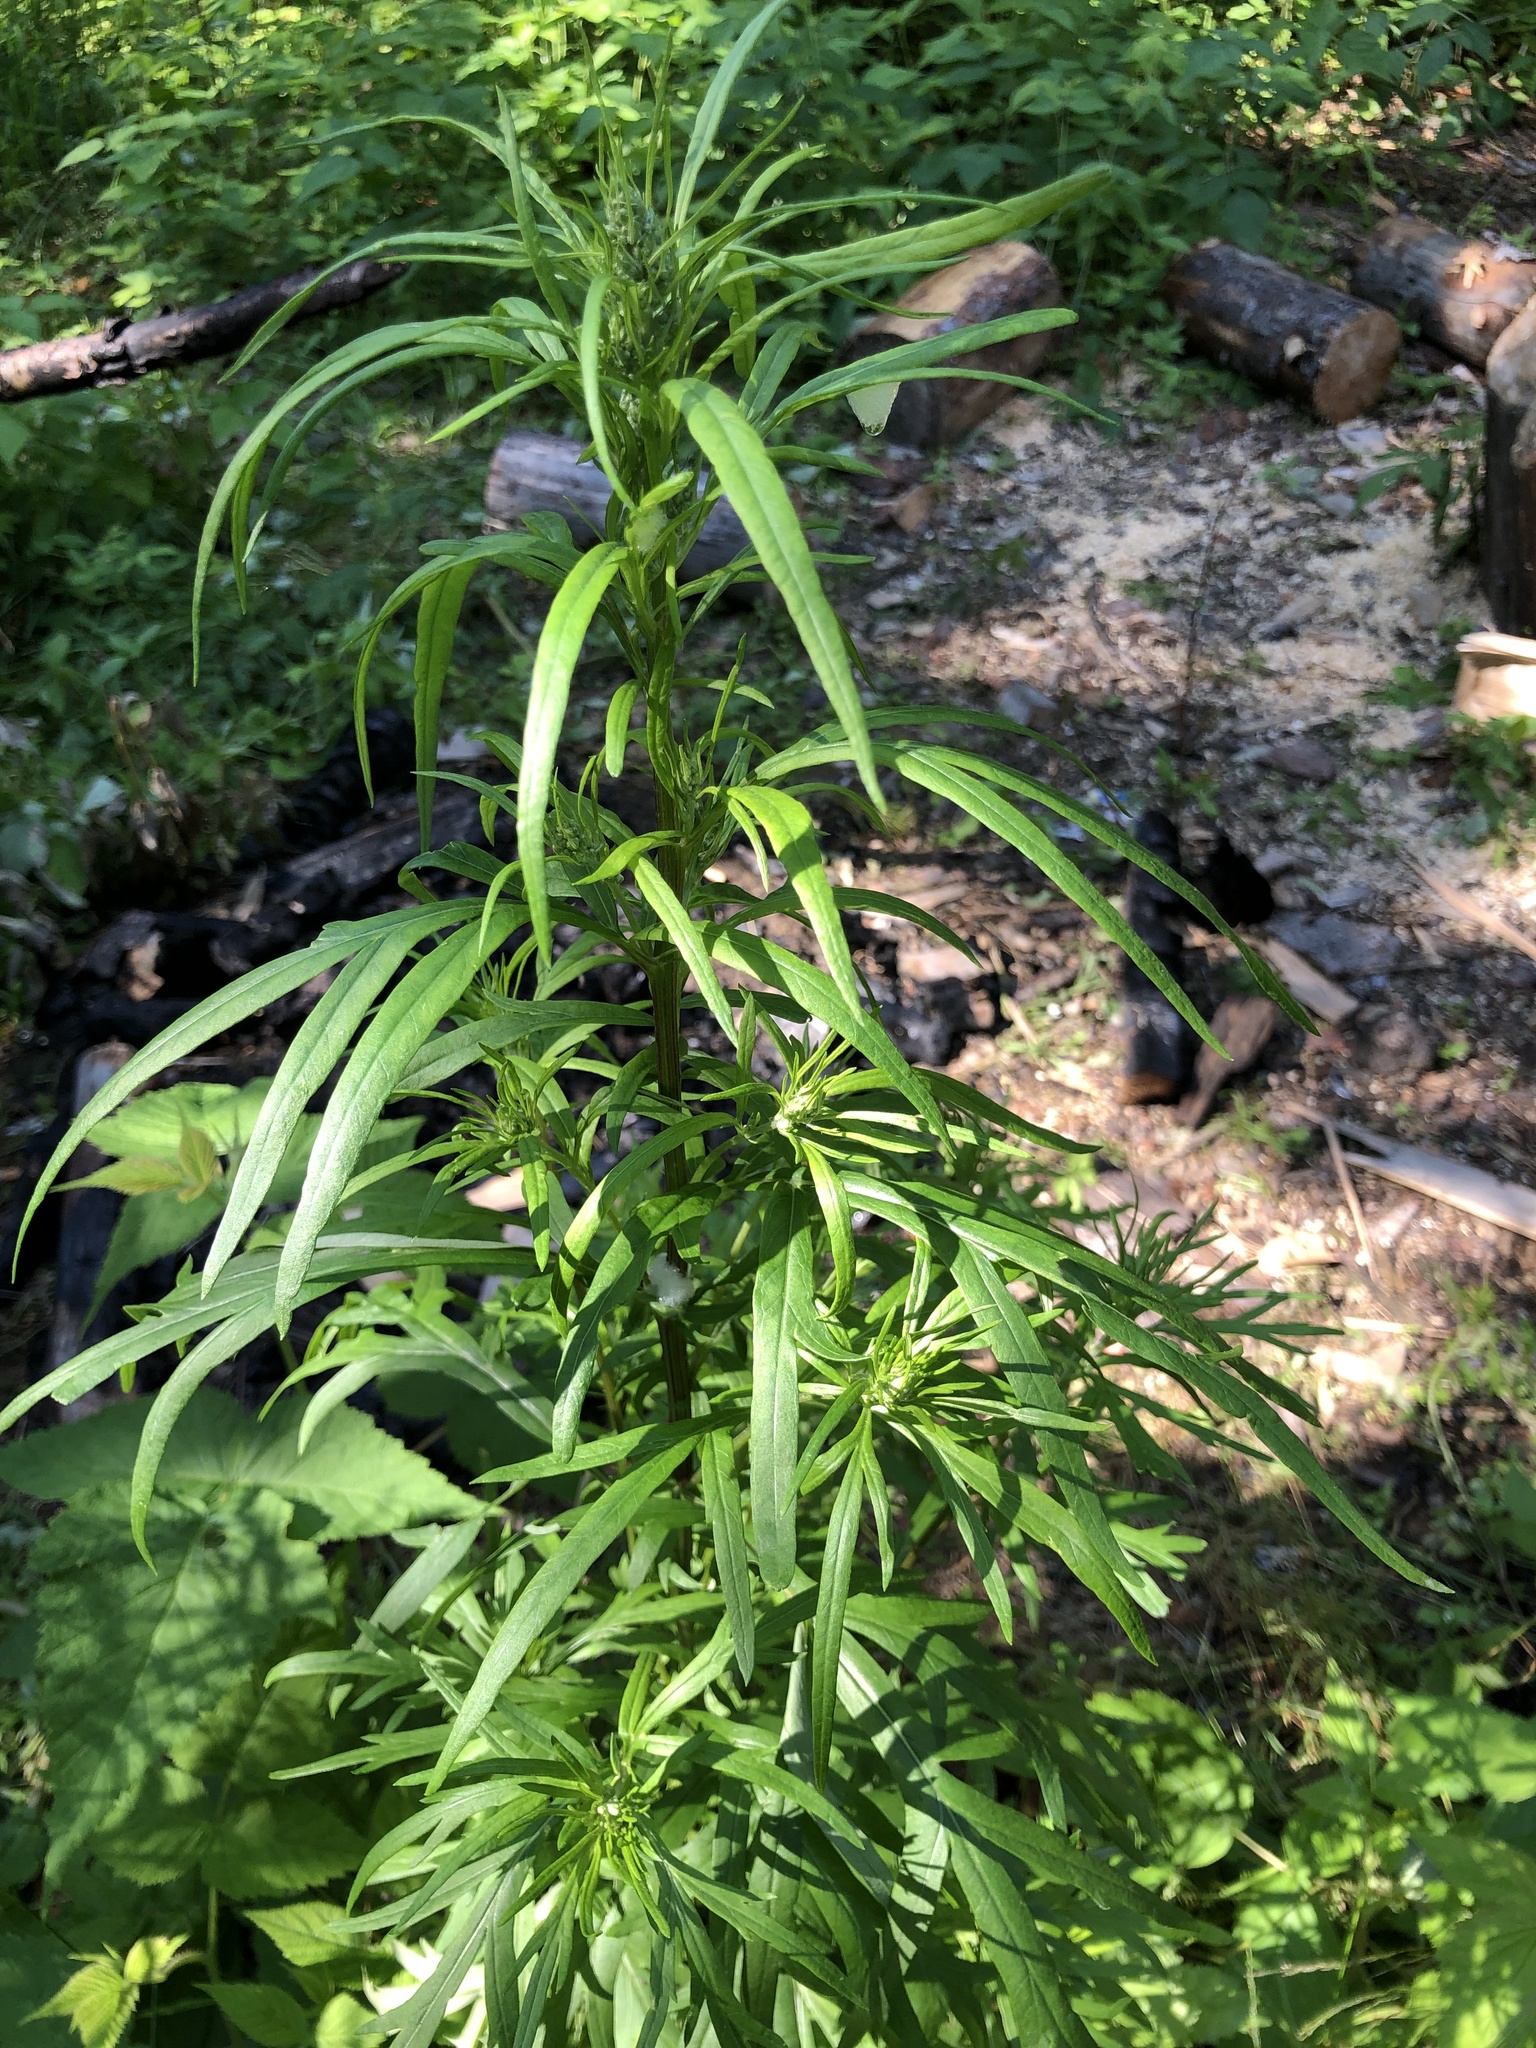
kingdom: Plantae
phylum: Tracheophyta
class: Magnoliopsida
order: Asterales
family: Asteraceae
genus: Artemisia
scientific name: Artemisia vulgaris
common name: Mugwort
